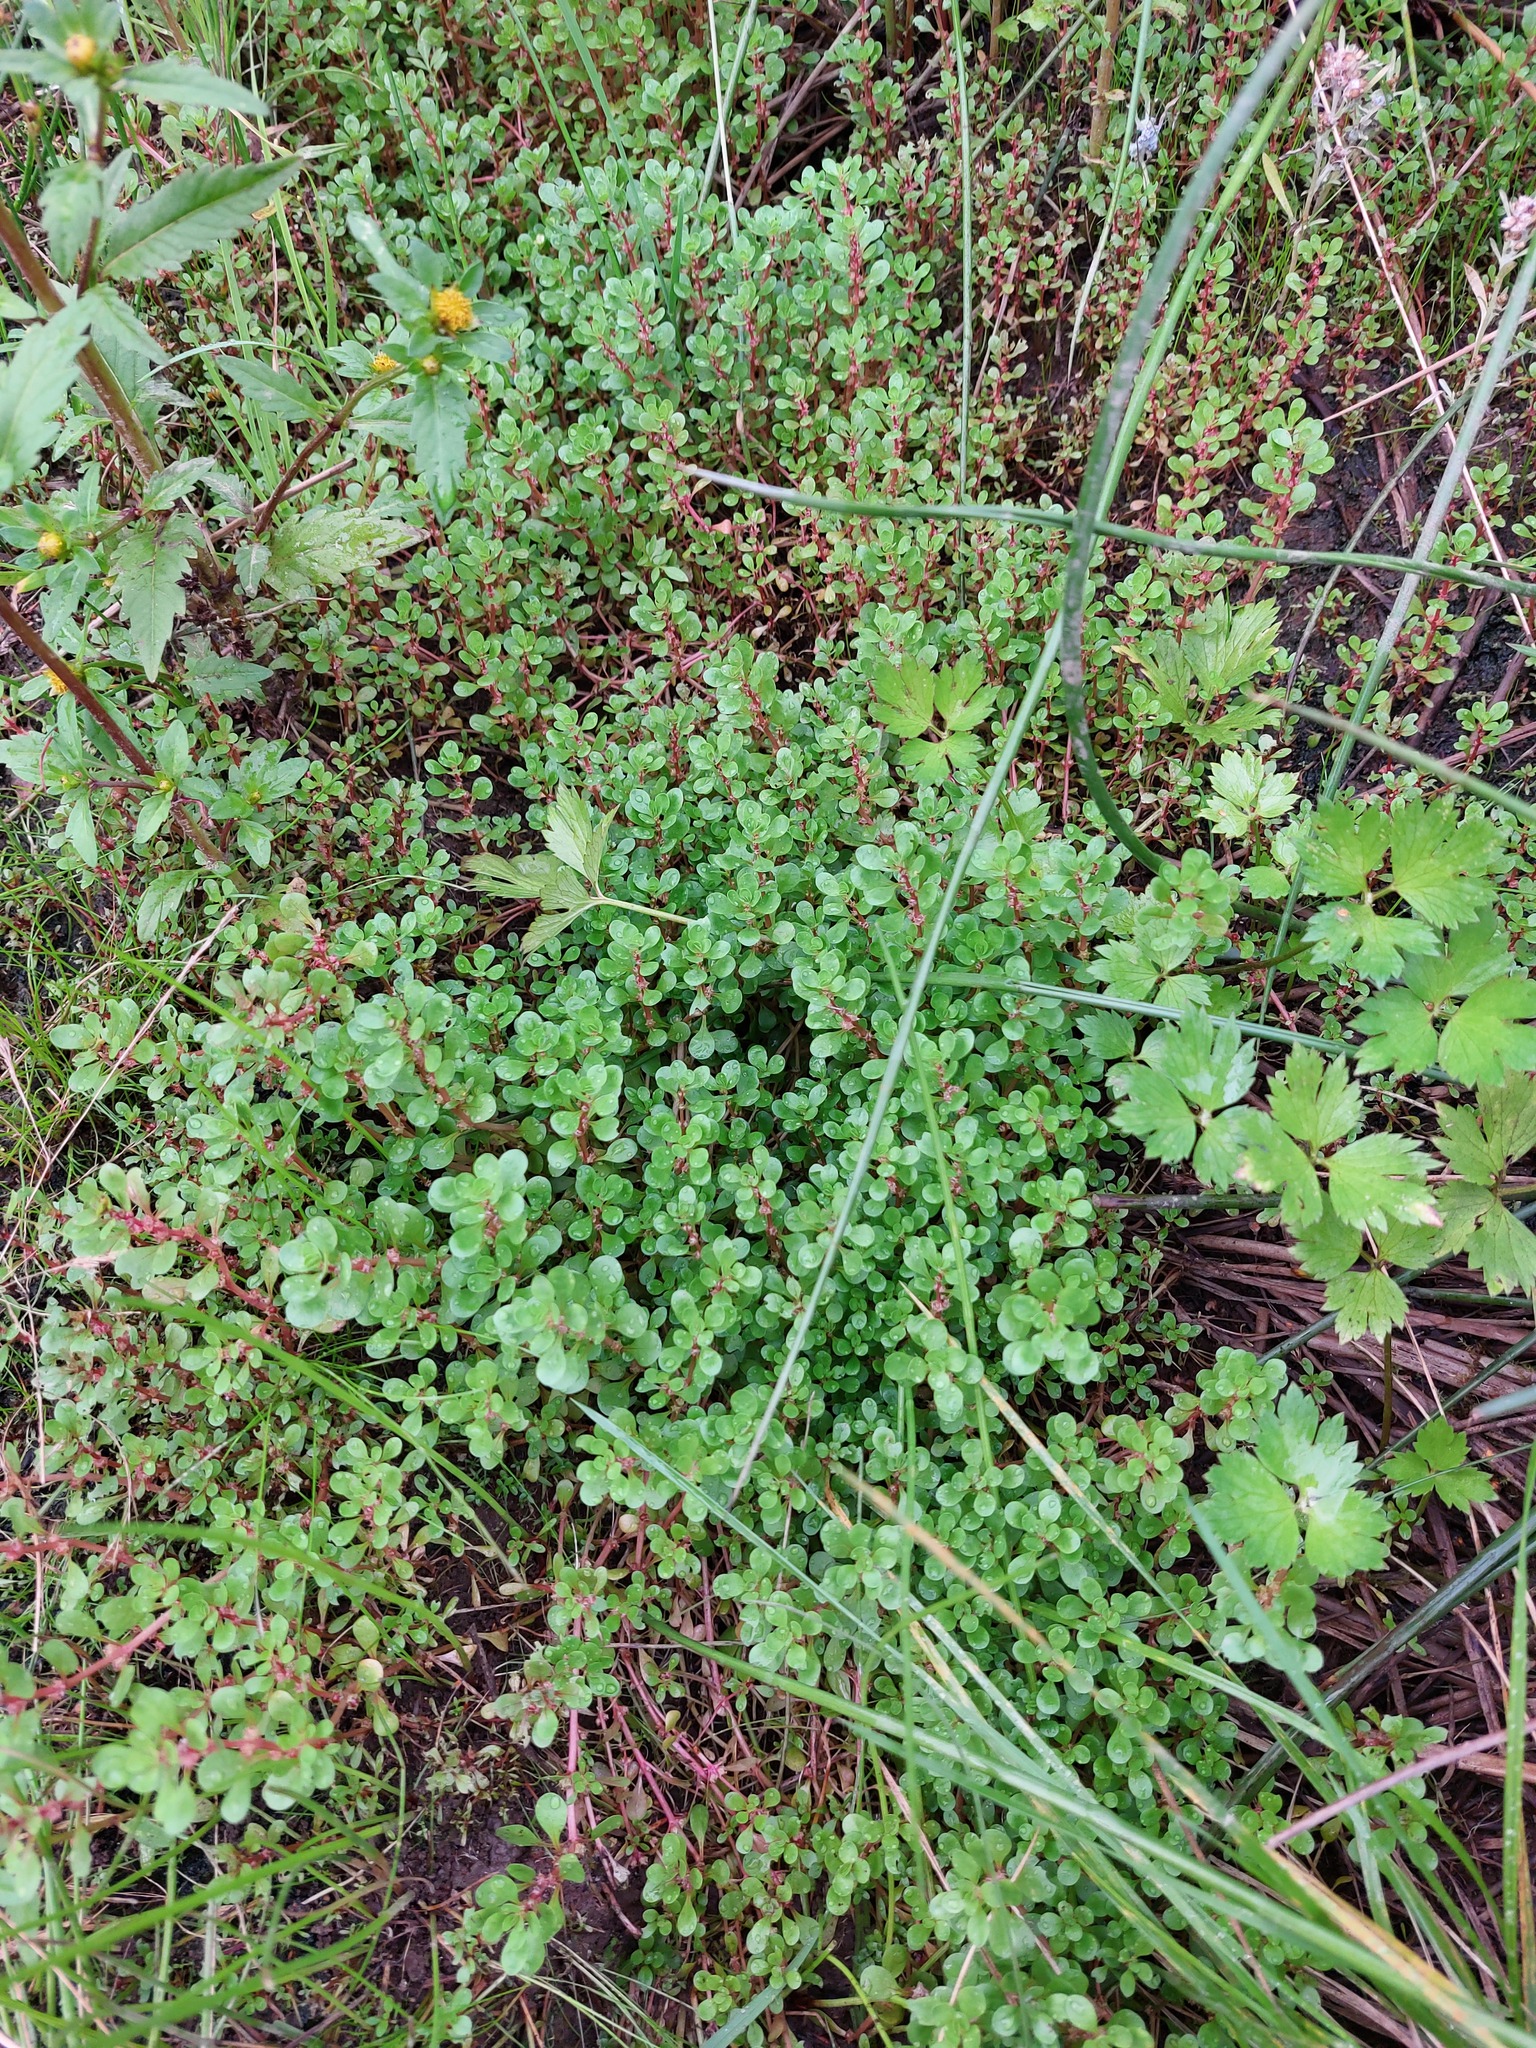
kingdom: Plantae
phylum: Tracheophyta
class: Magnoliopsida
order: Myrtales
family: Lythraceae
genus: Lythrum
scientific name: Lythrum portula
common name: Water purslane
